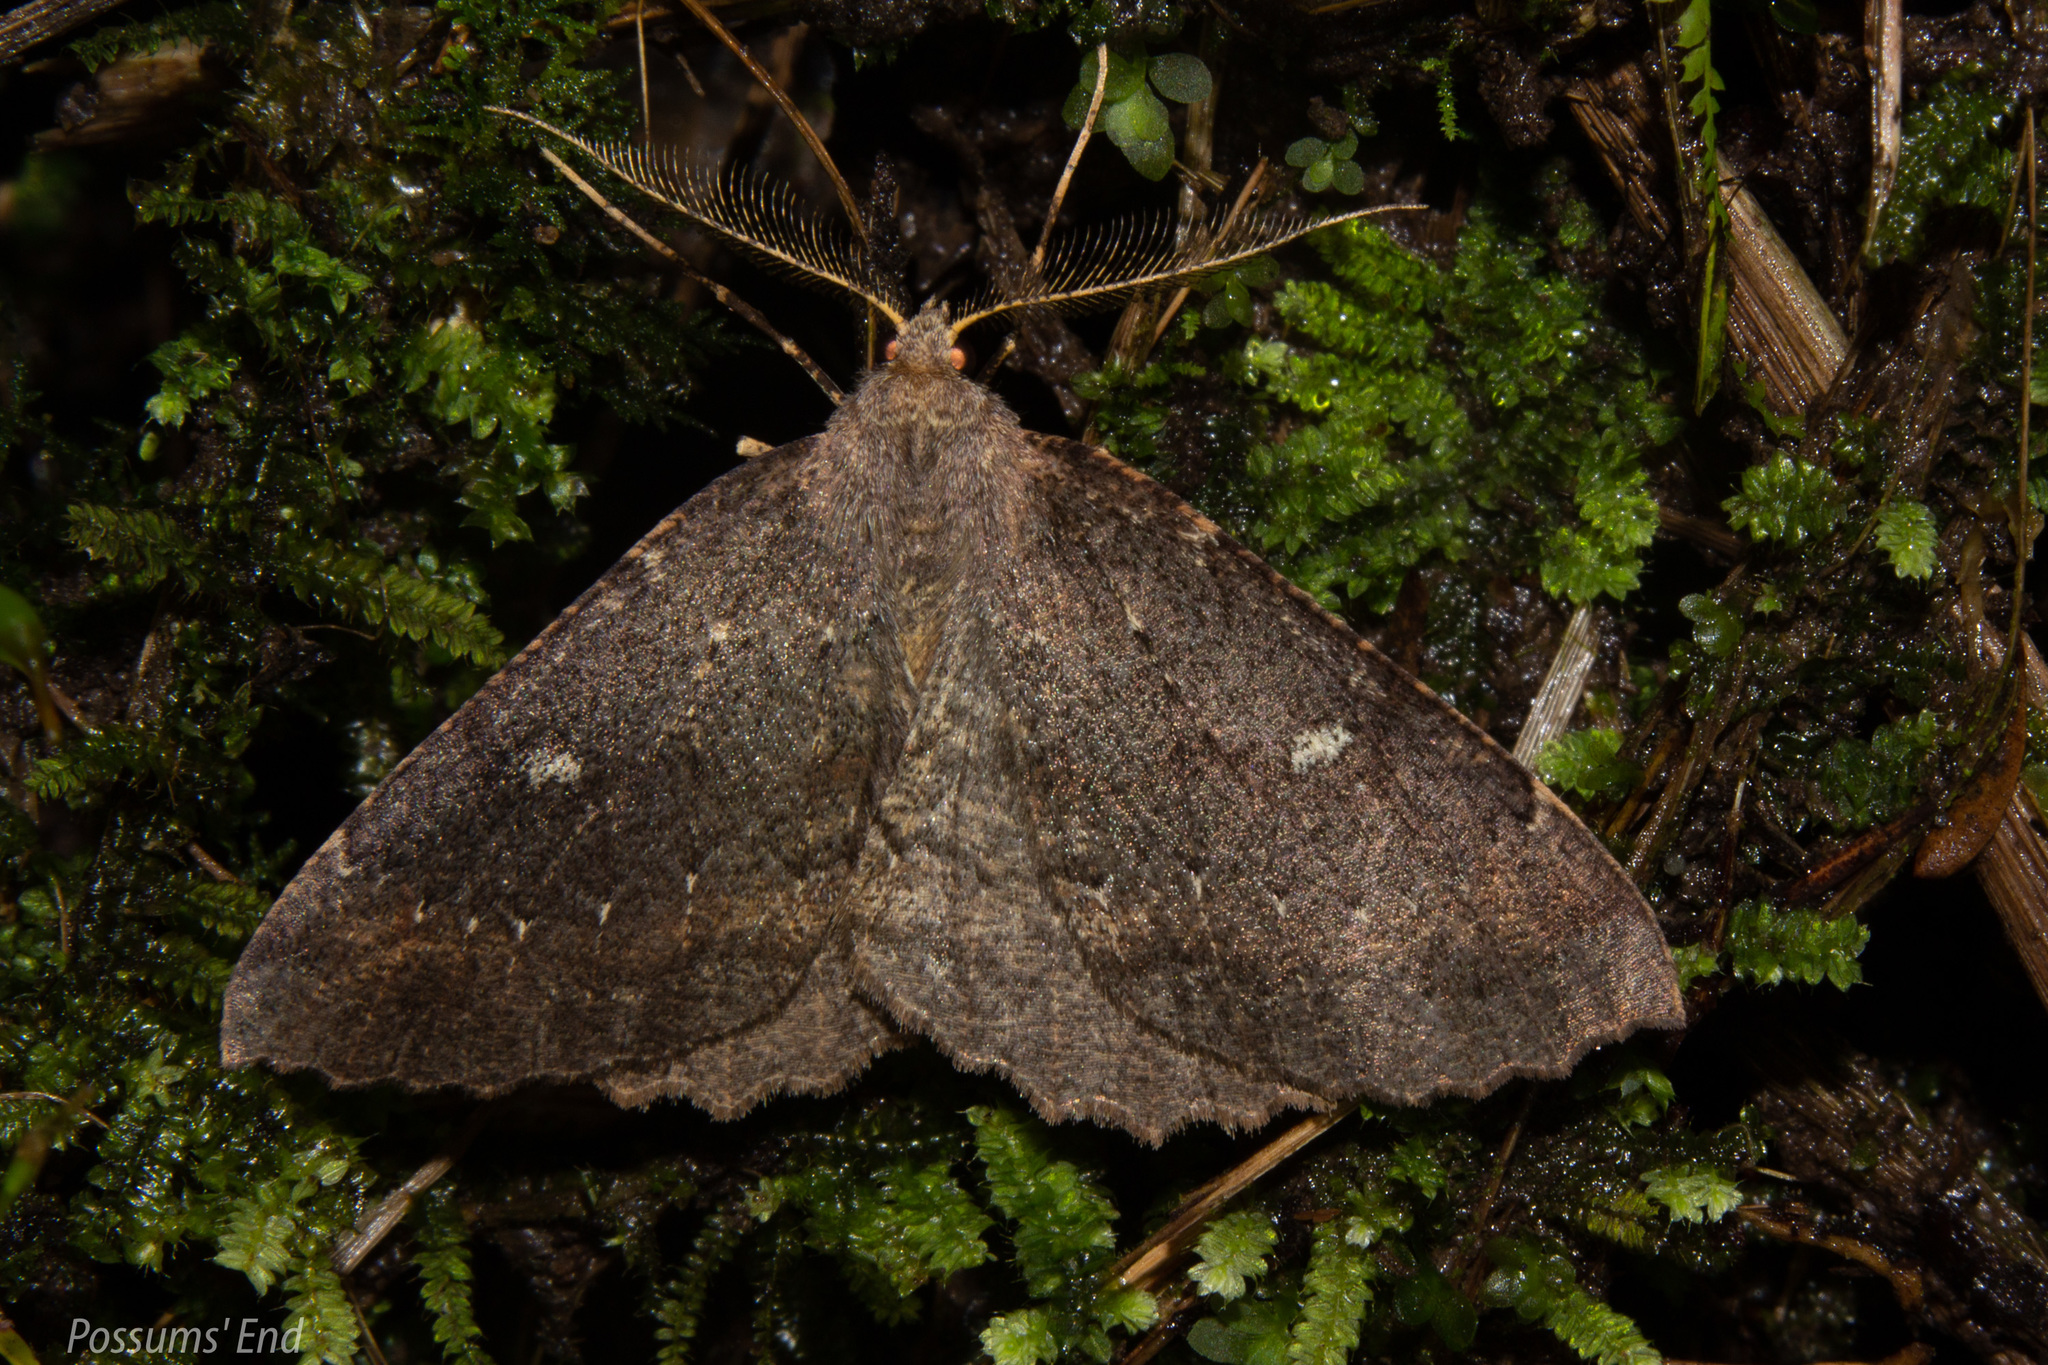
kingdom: Animalia
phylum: Arthropoda
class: Insecta
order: Lepidoptera
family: Geometridae
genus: Cleora
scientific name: Cleora scriptaria
